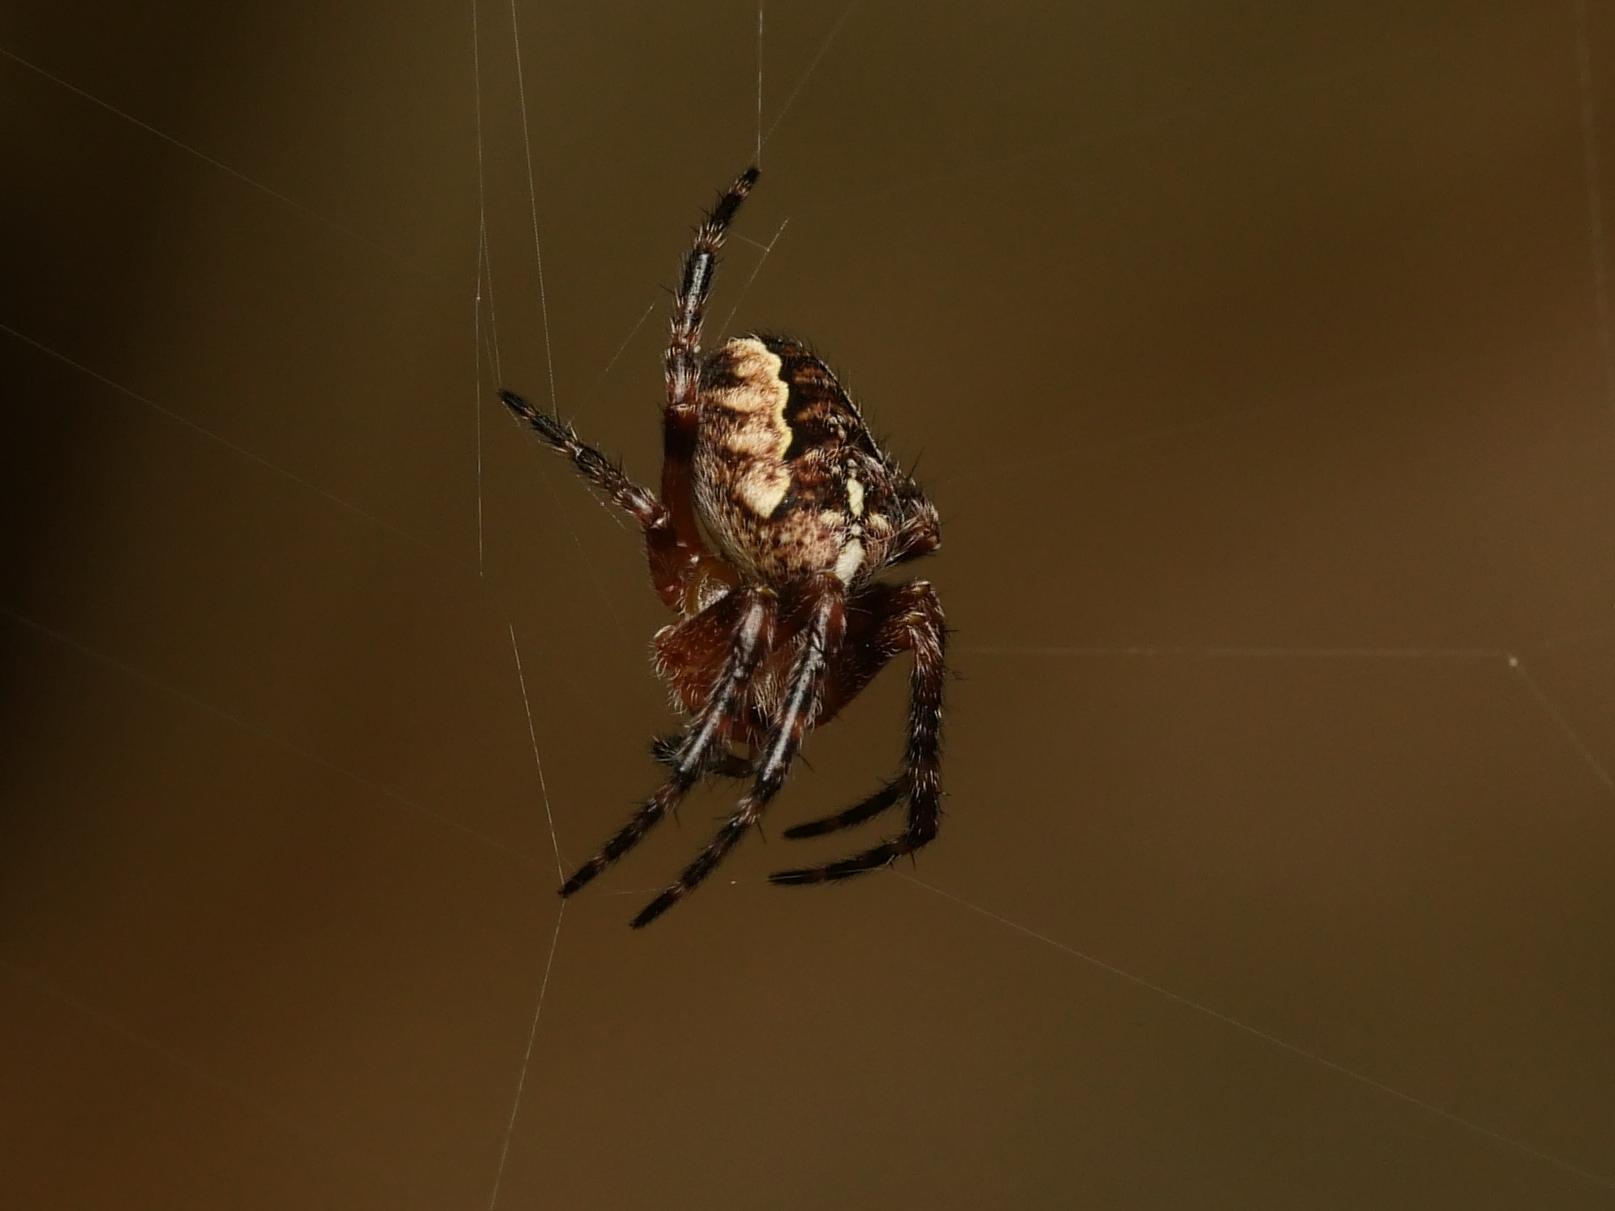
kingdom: Animalia
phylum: Arthropoda
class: Arachnida
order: Araneae
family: Araneidae
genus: Araneus
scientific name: Araneus diadematus
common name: Cross orbweaver
